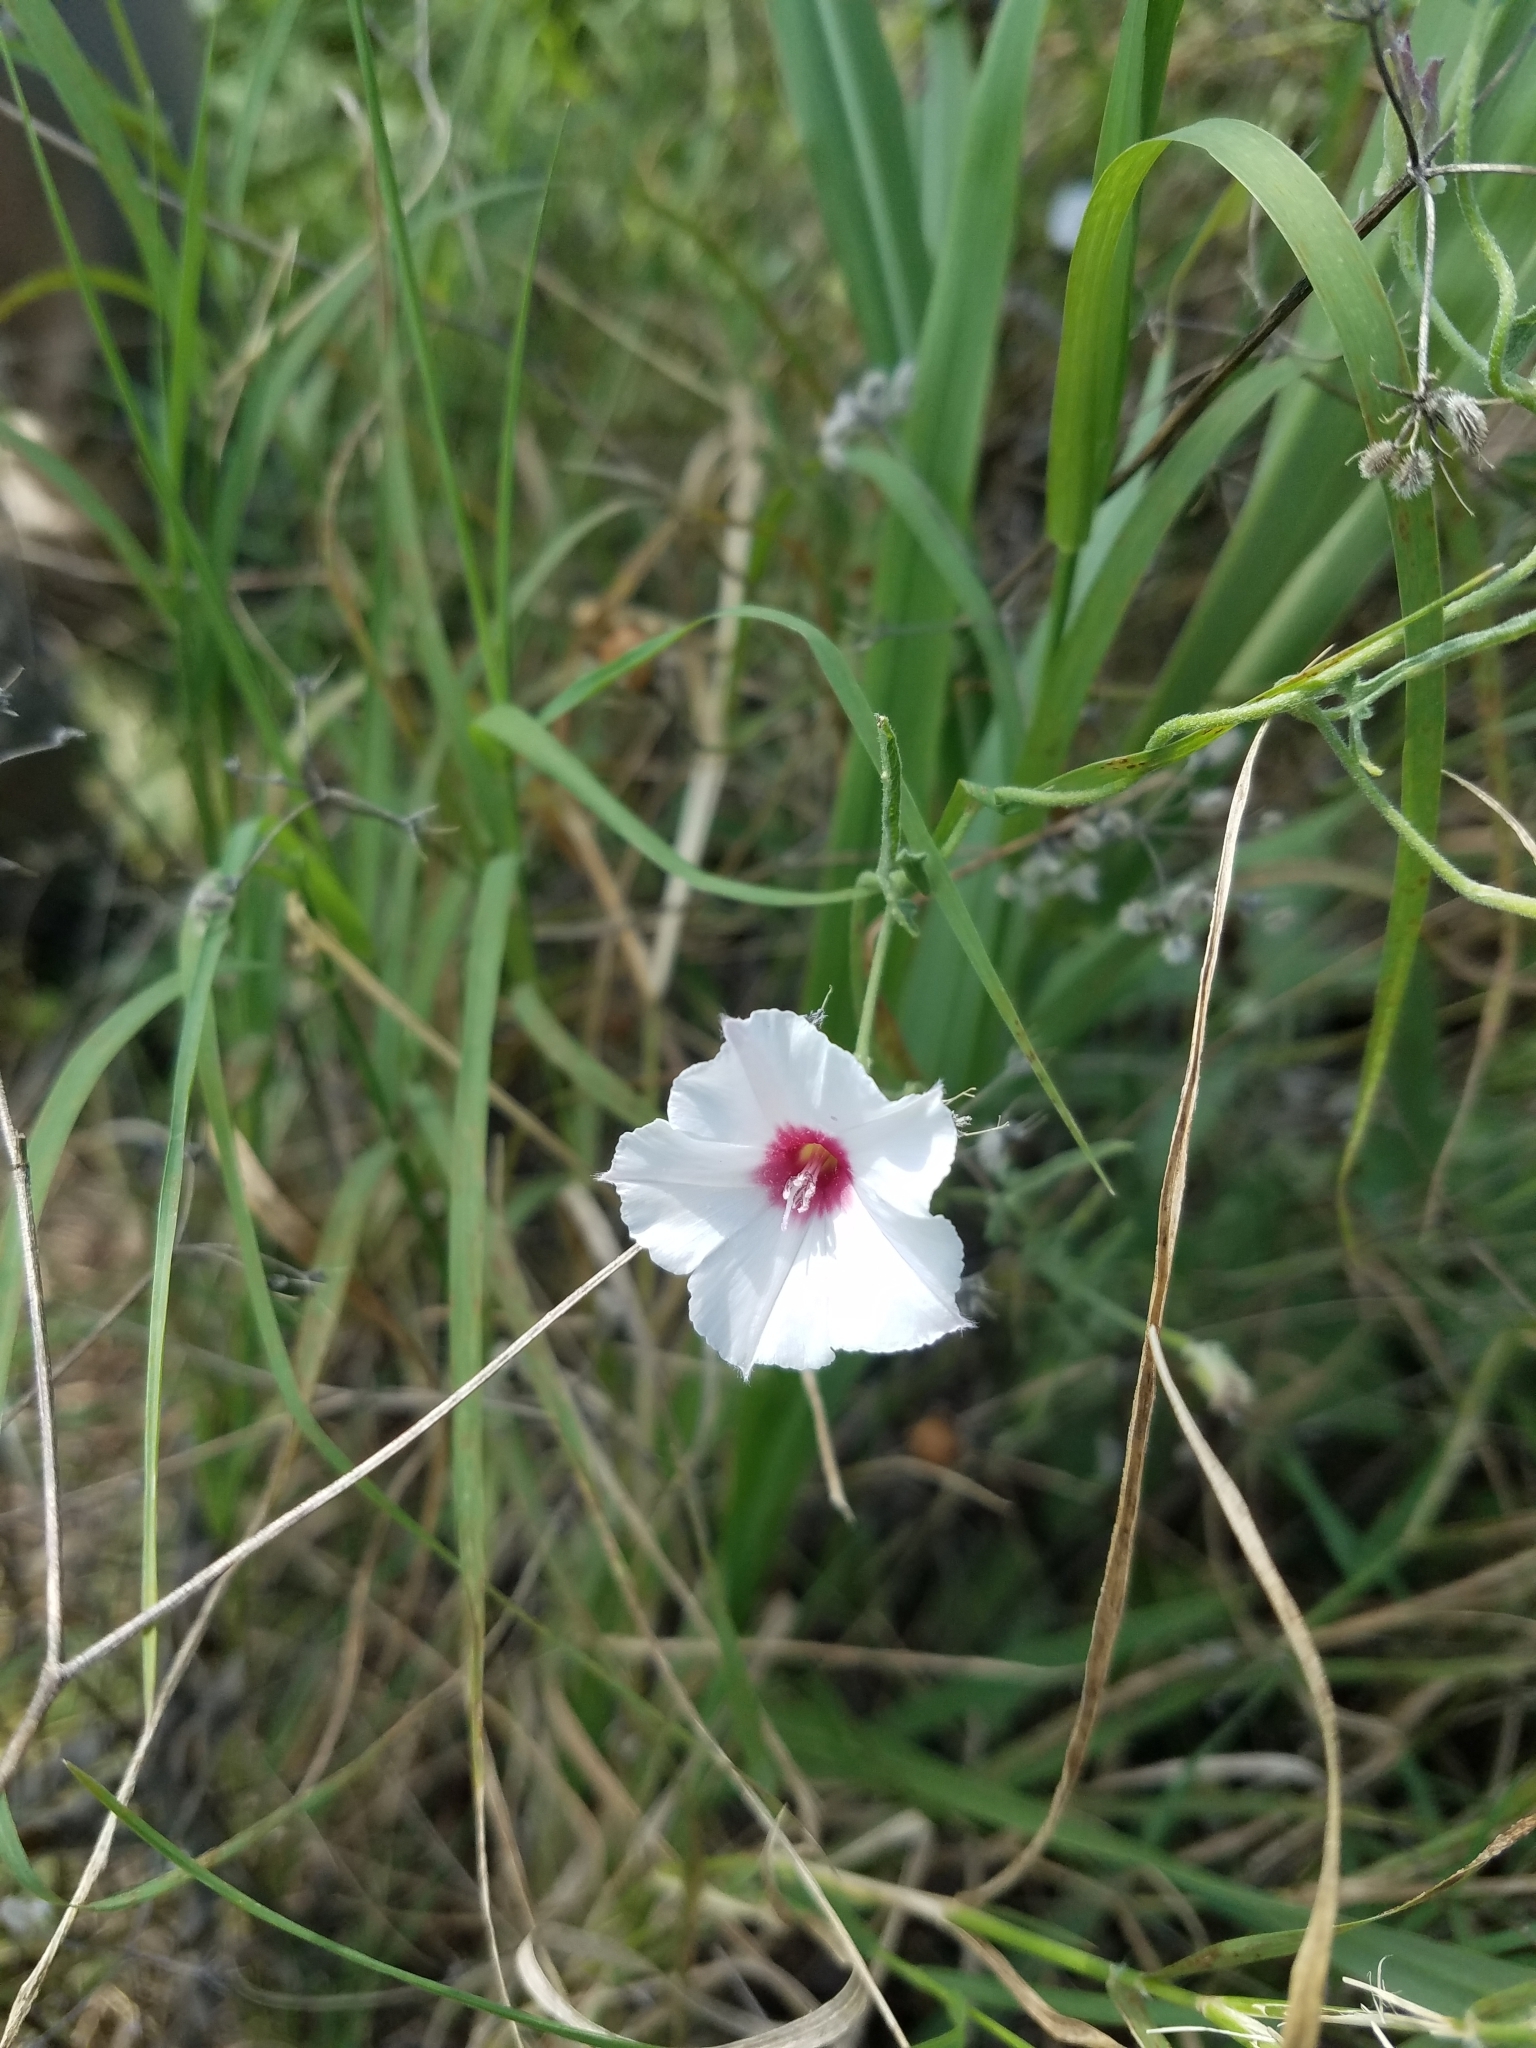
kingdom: Plantae
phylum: Tracheophyta
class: Magnoliopsida
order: Solanales
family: Convolvulaceae
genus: Convolvulus
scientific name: Convolvulus equitans
